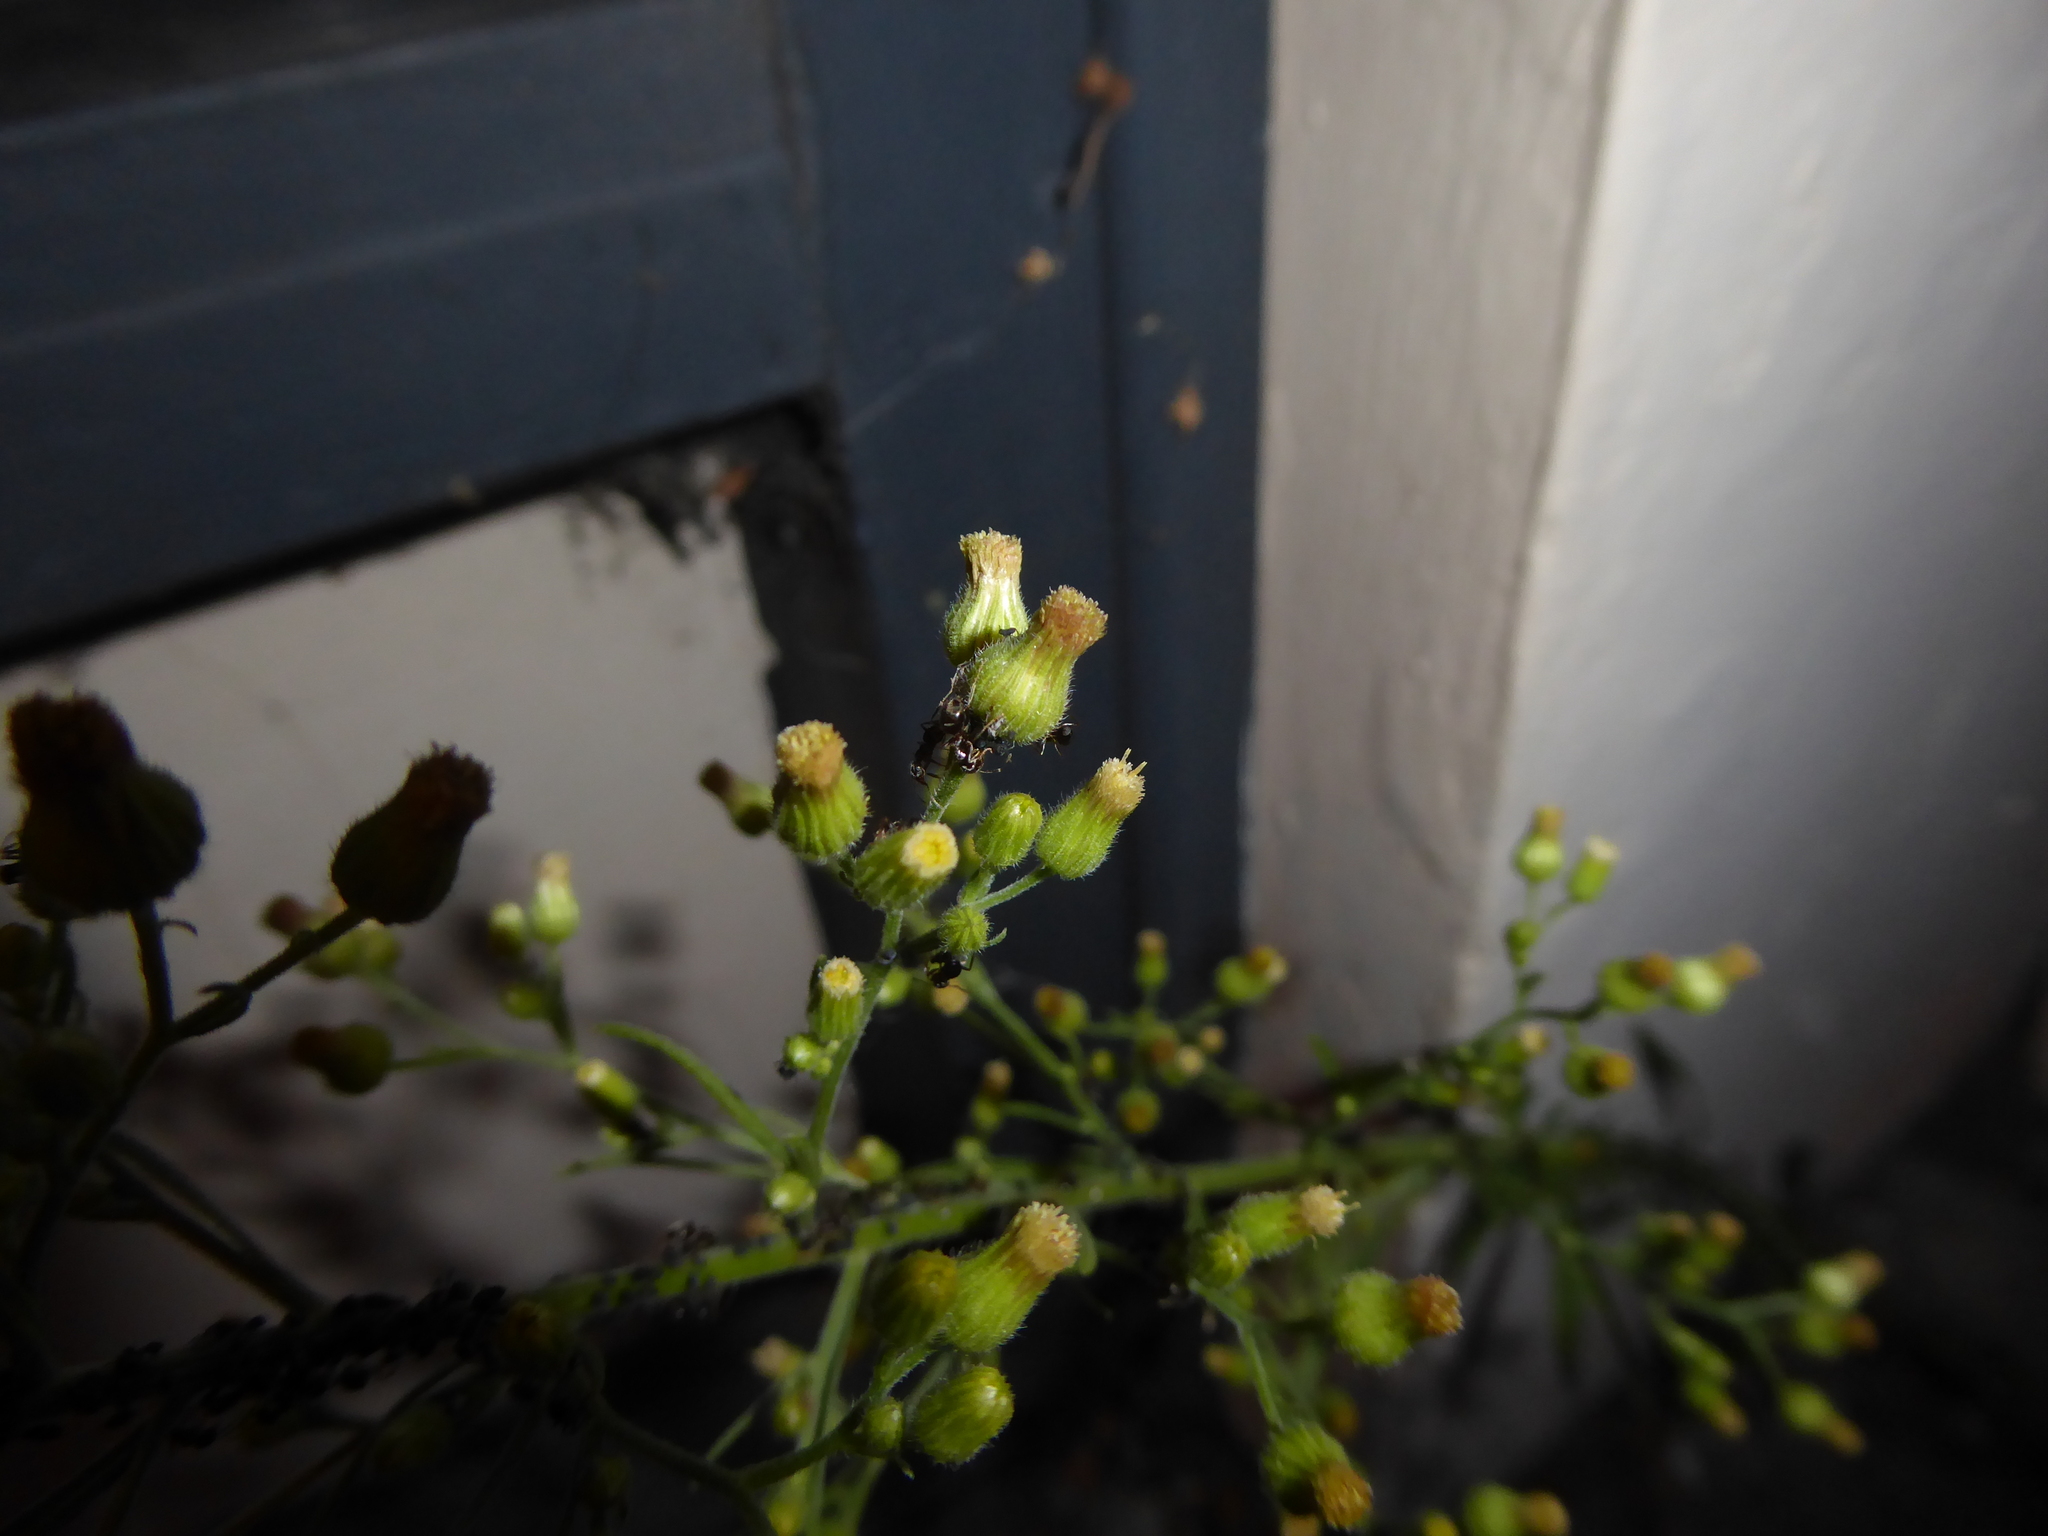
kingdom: Plantae
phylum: Tracheophyta
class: Magnoliopsida
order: Asterales
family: Asteraceae
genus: Erigeron
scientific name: Erigeron sumatrensis
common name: Daisy
